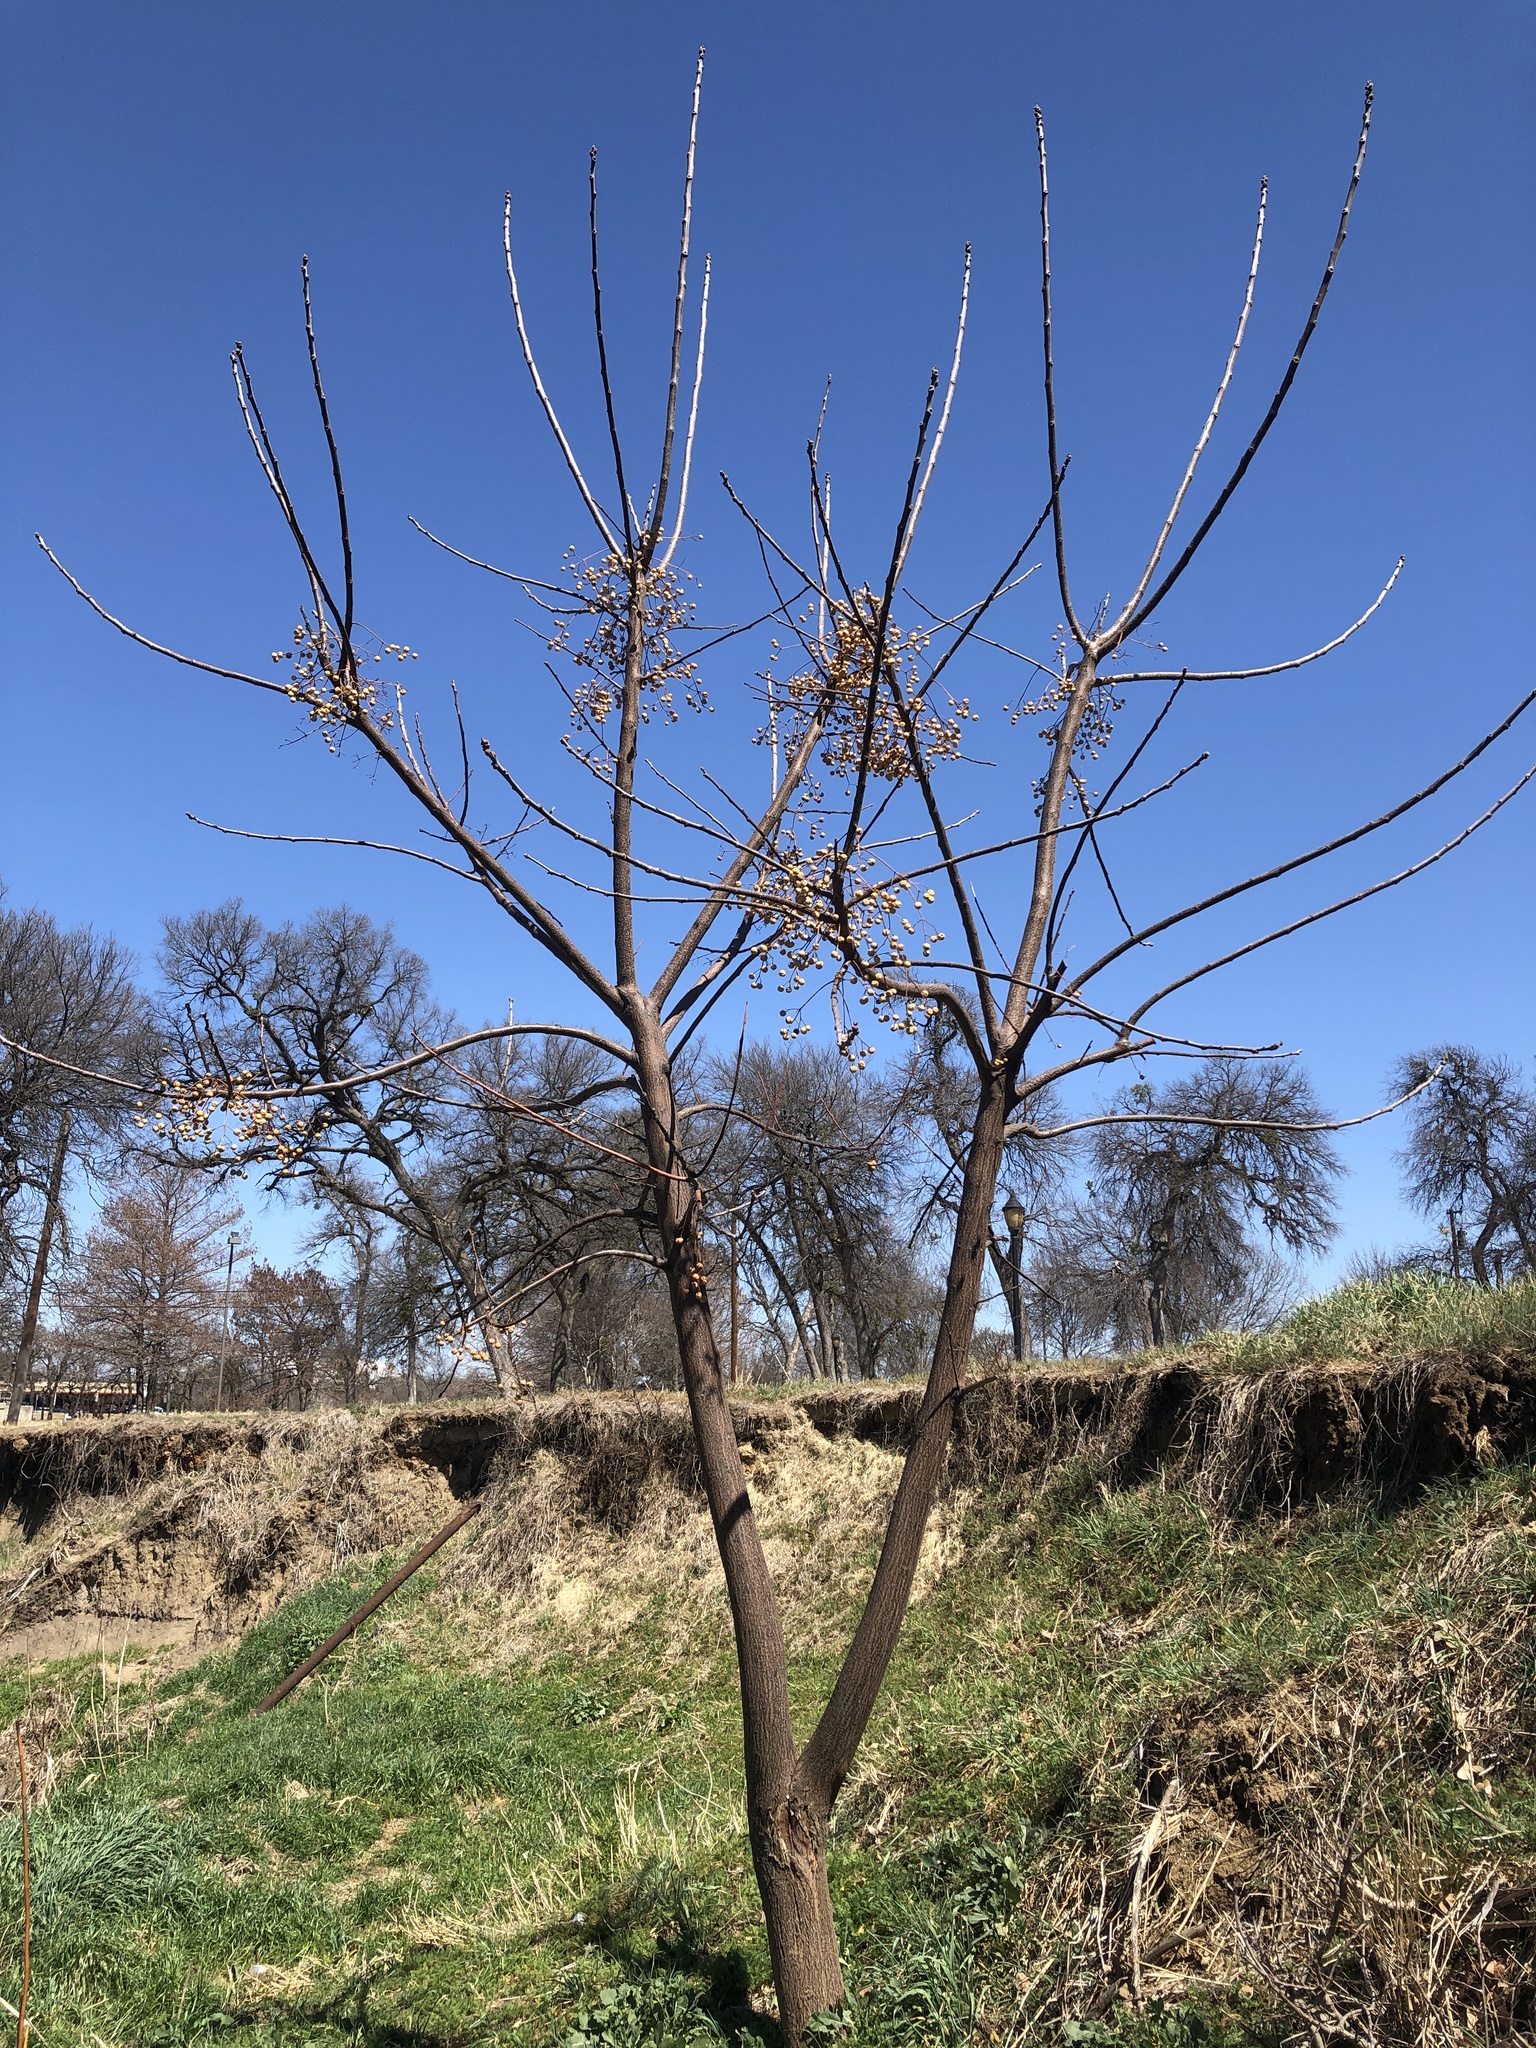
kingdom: Plantae
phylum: Tracheophyta
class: Magnoliopsida
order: Sapindales
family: Meliaceae
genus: Melia
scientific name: Melia azedarach
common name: Chinaberrytree
